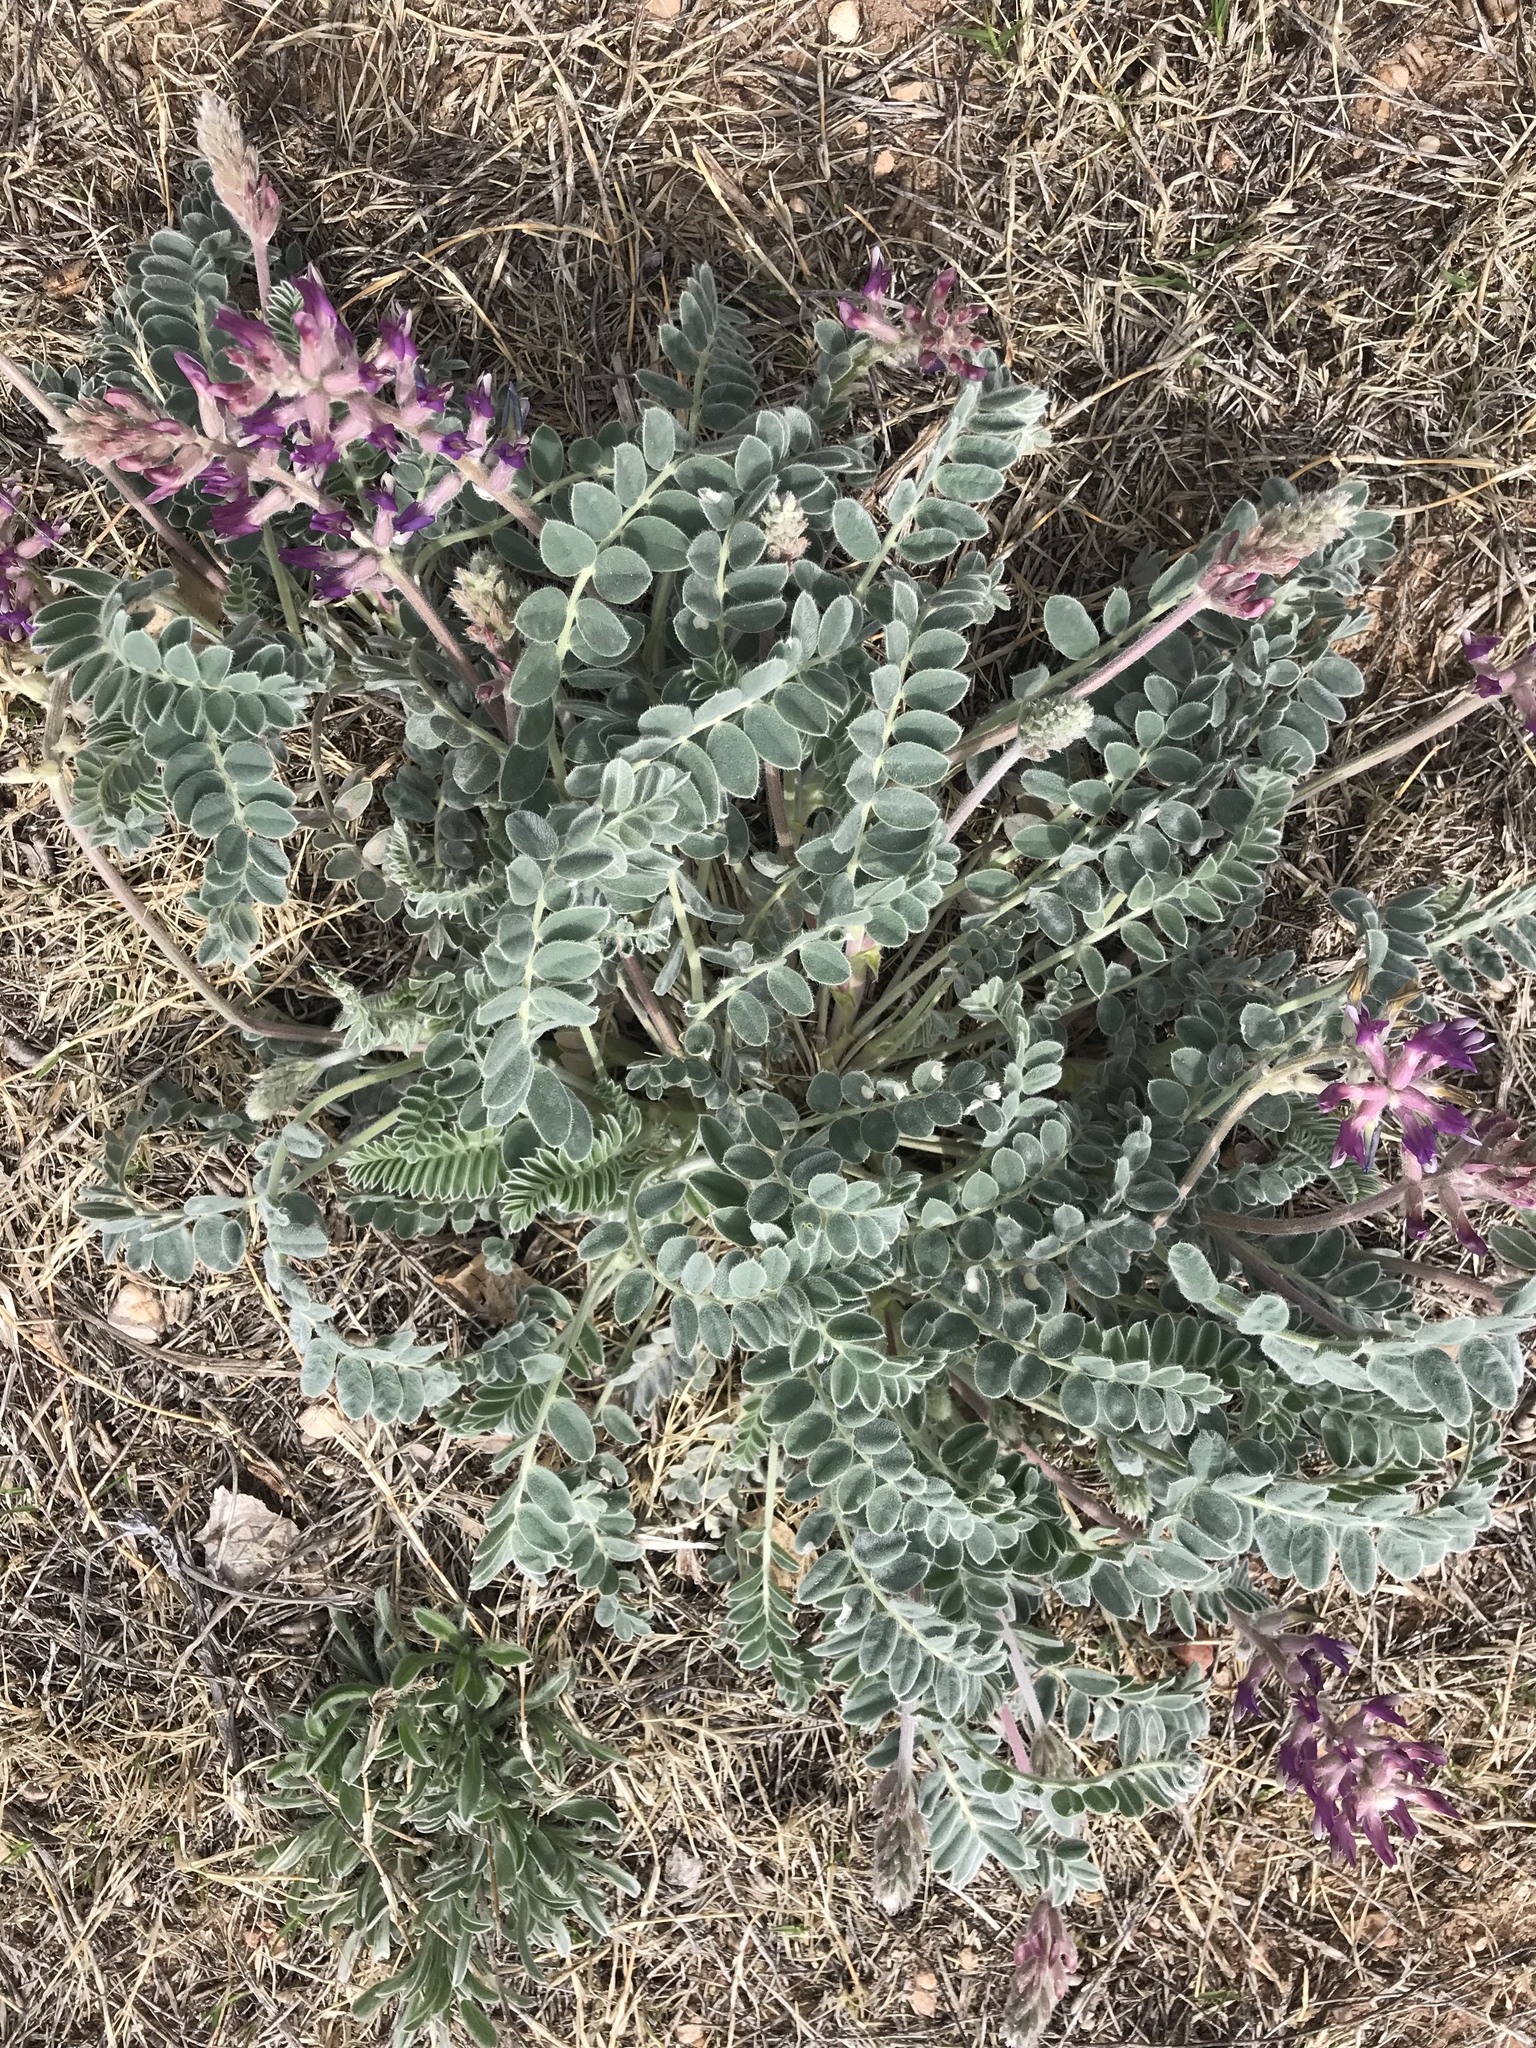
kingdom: Plantae
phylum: Tracheophyta
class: Magnoliopsida
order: Fabales
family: Fabaceae
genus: Astragalus
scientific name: Astragalus mollissimus
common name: Woolly locoweed
